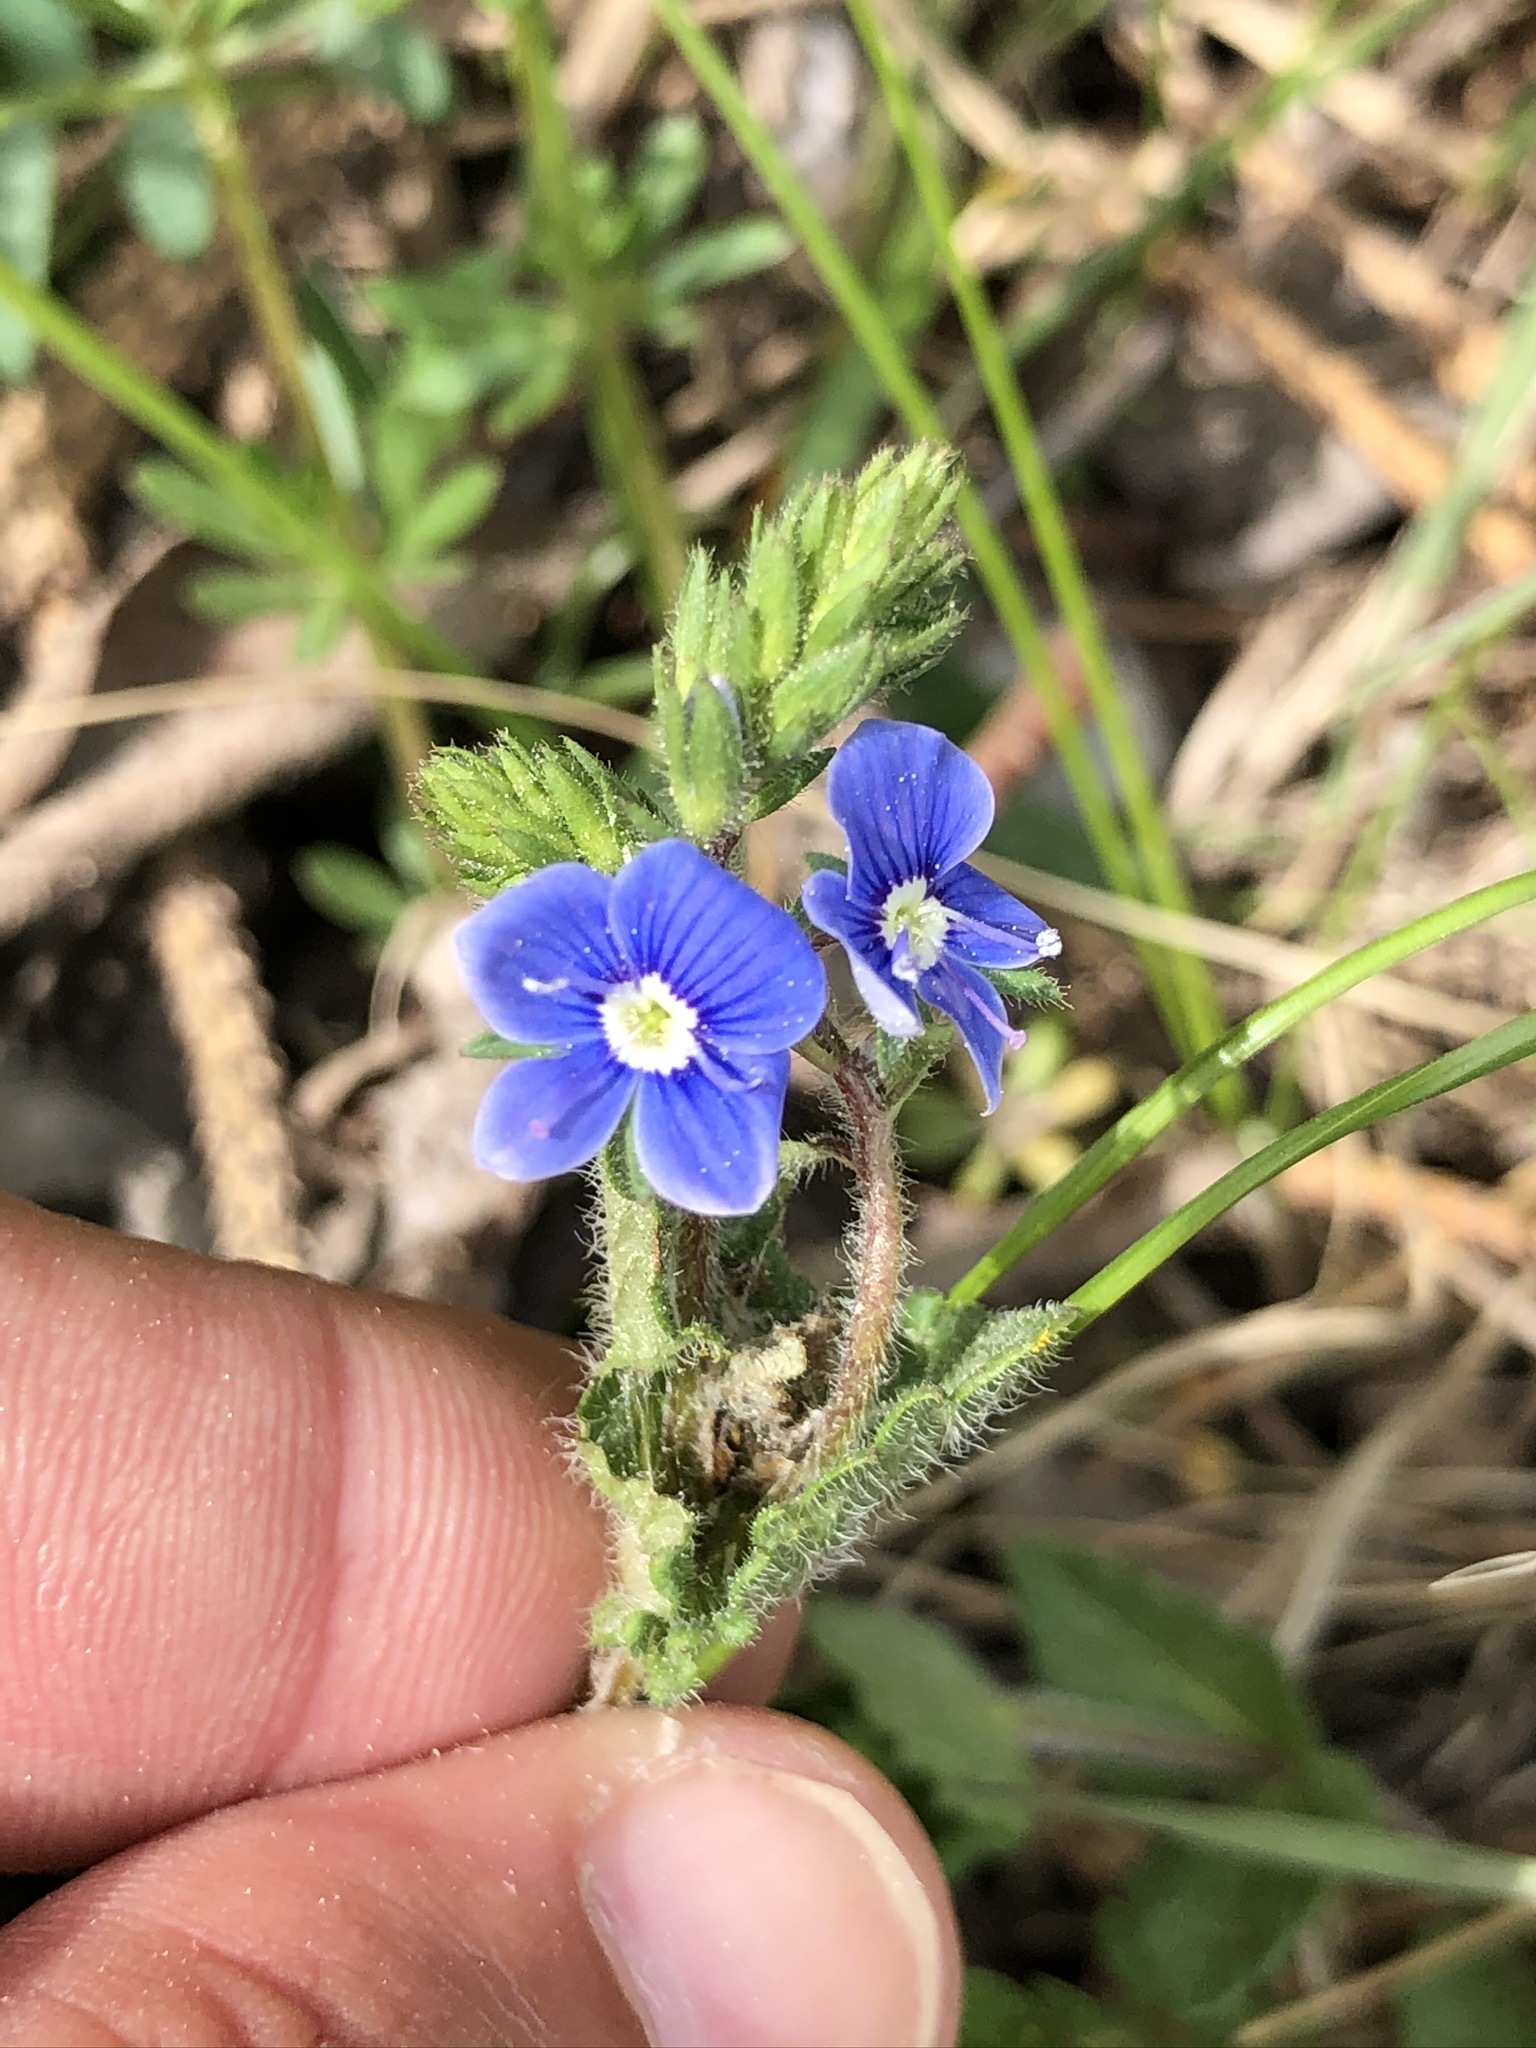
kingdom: Plantae
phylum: Tracheophyta
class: Magnoliopsida
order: Lamiales
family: Plantaginaceae
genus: Veronica
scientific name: Veronica chamaedrys
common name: Germander speedwell
